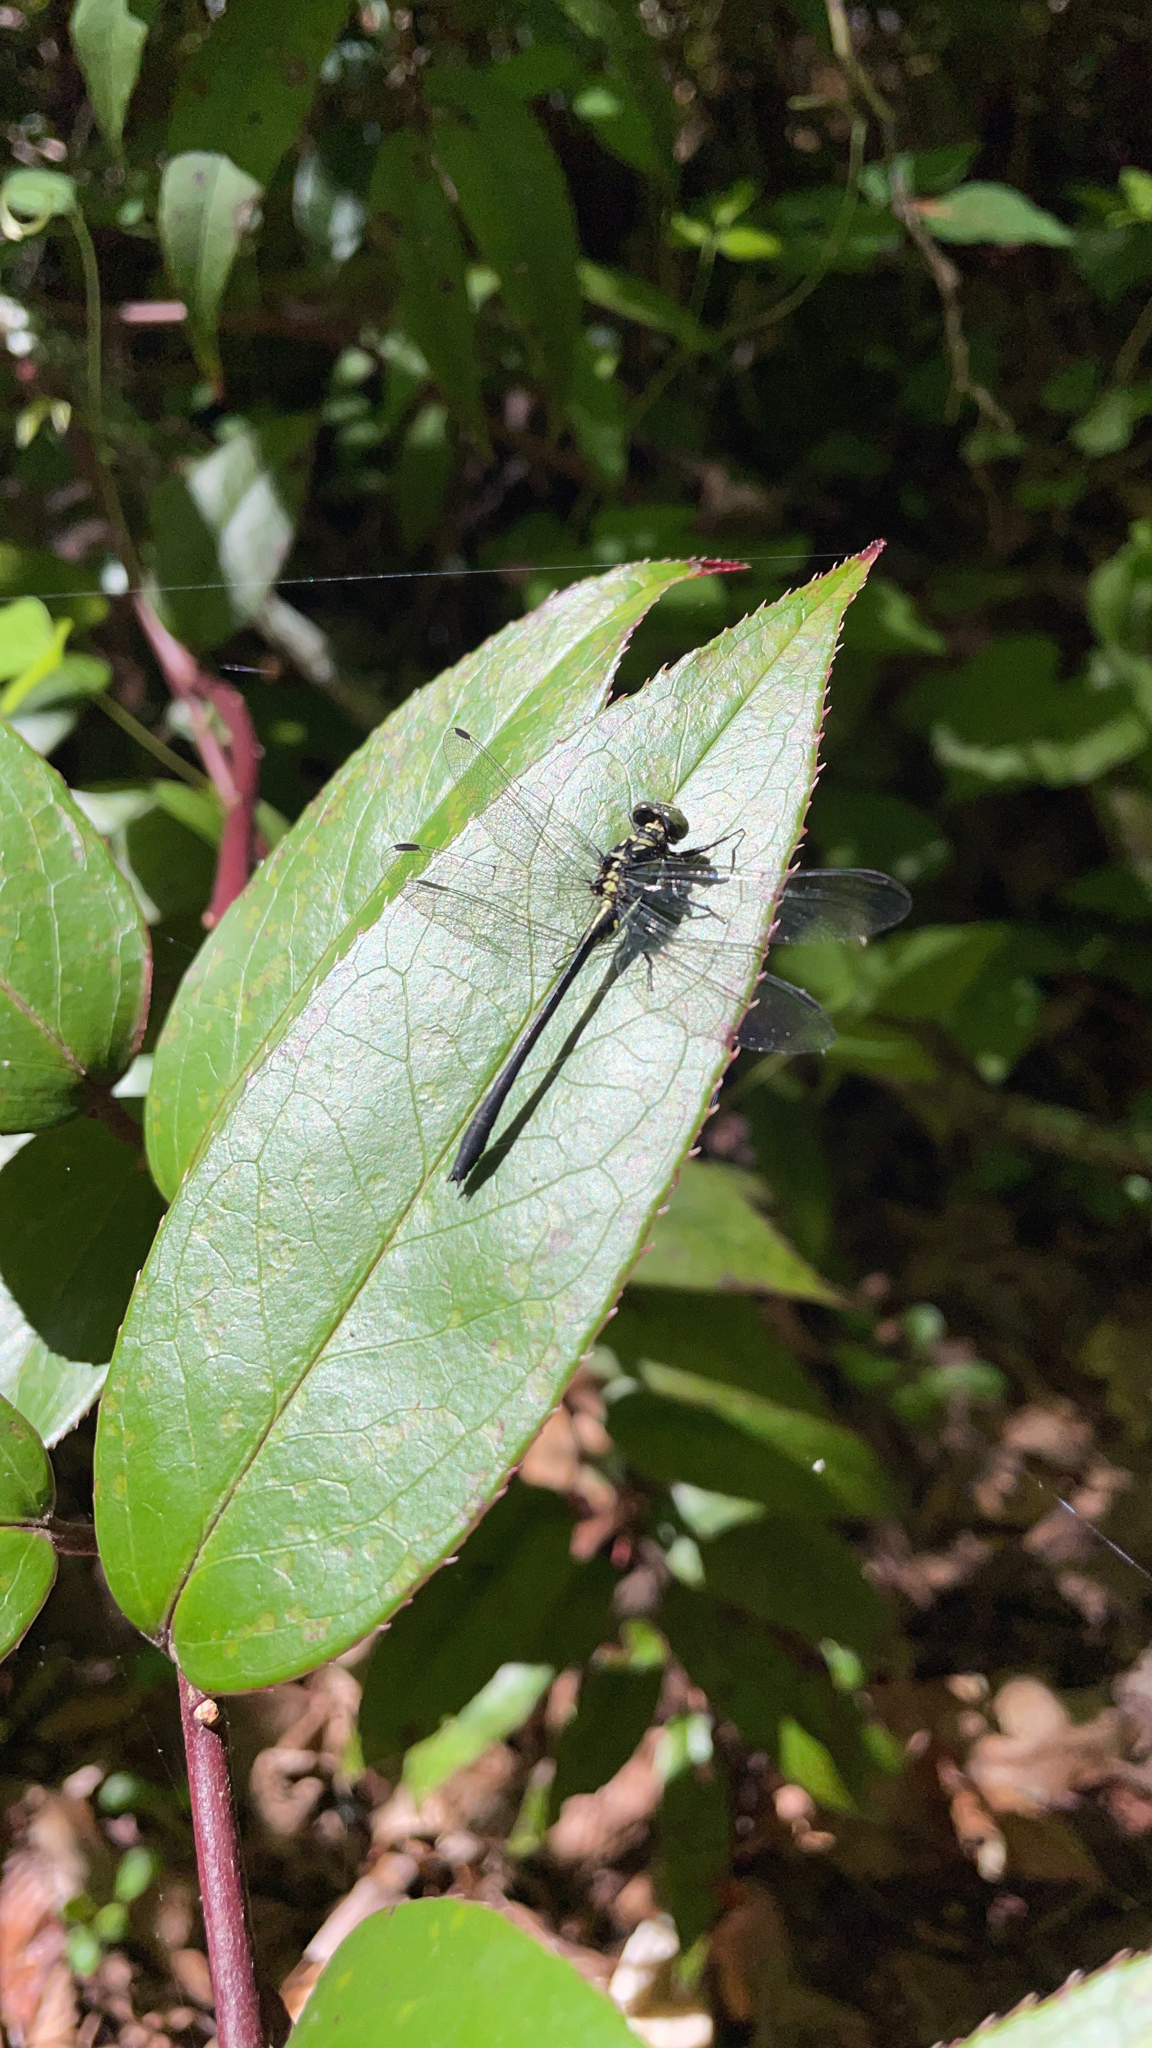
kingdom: Animalia
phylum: Arthropoda
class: Insecta
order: Odonata
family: Gomphidae
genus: Lanthus
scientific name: Lanthus vernalis
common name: Southern pygmy clubtail
